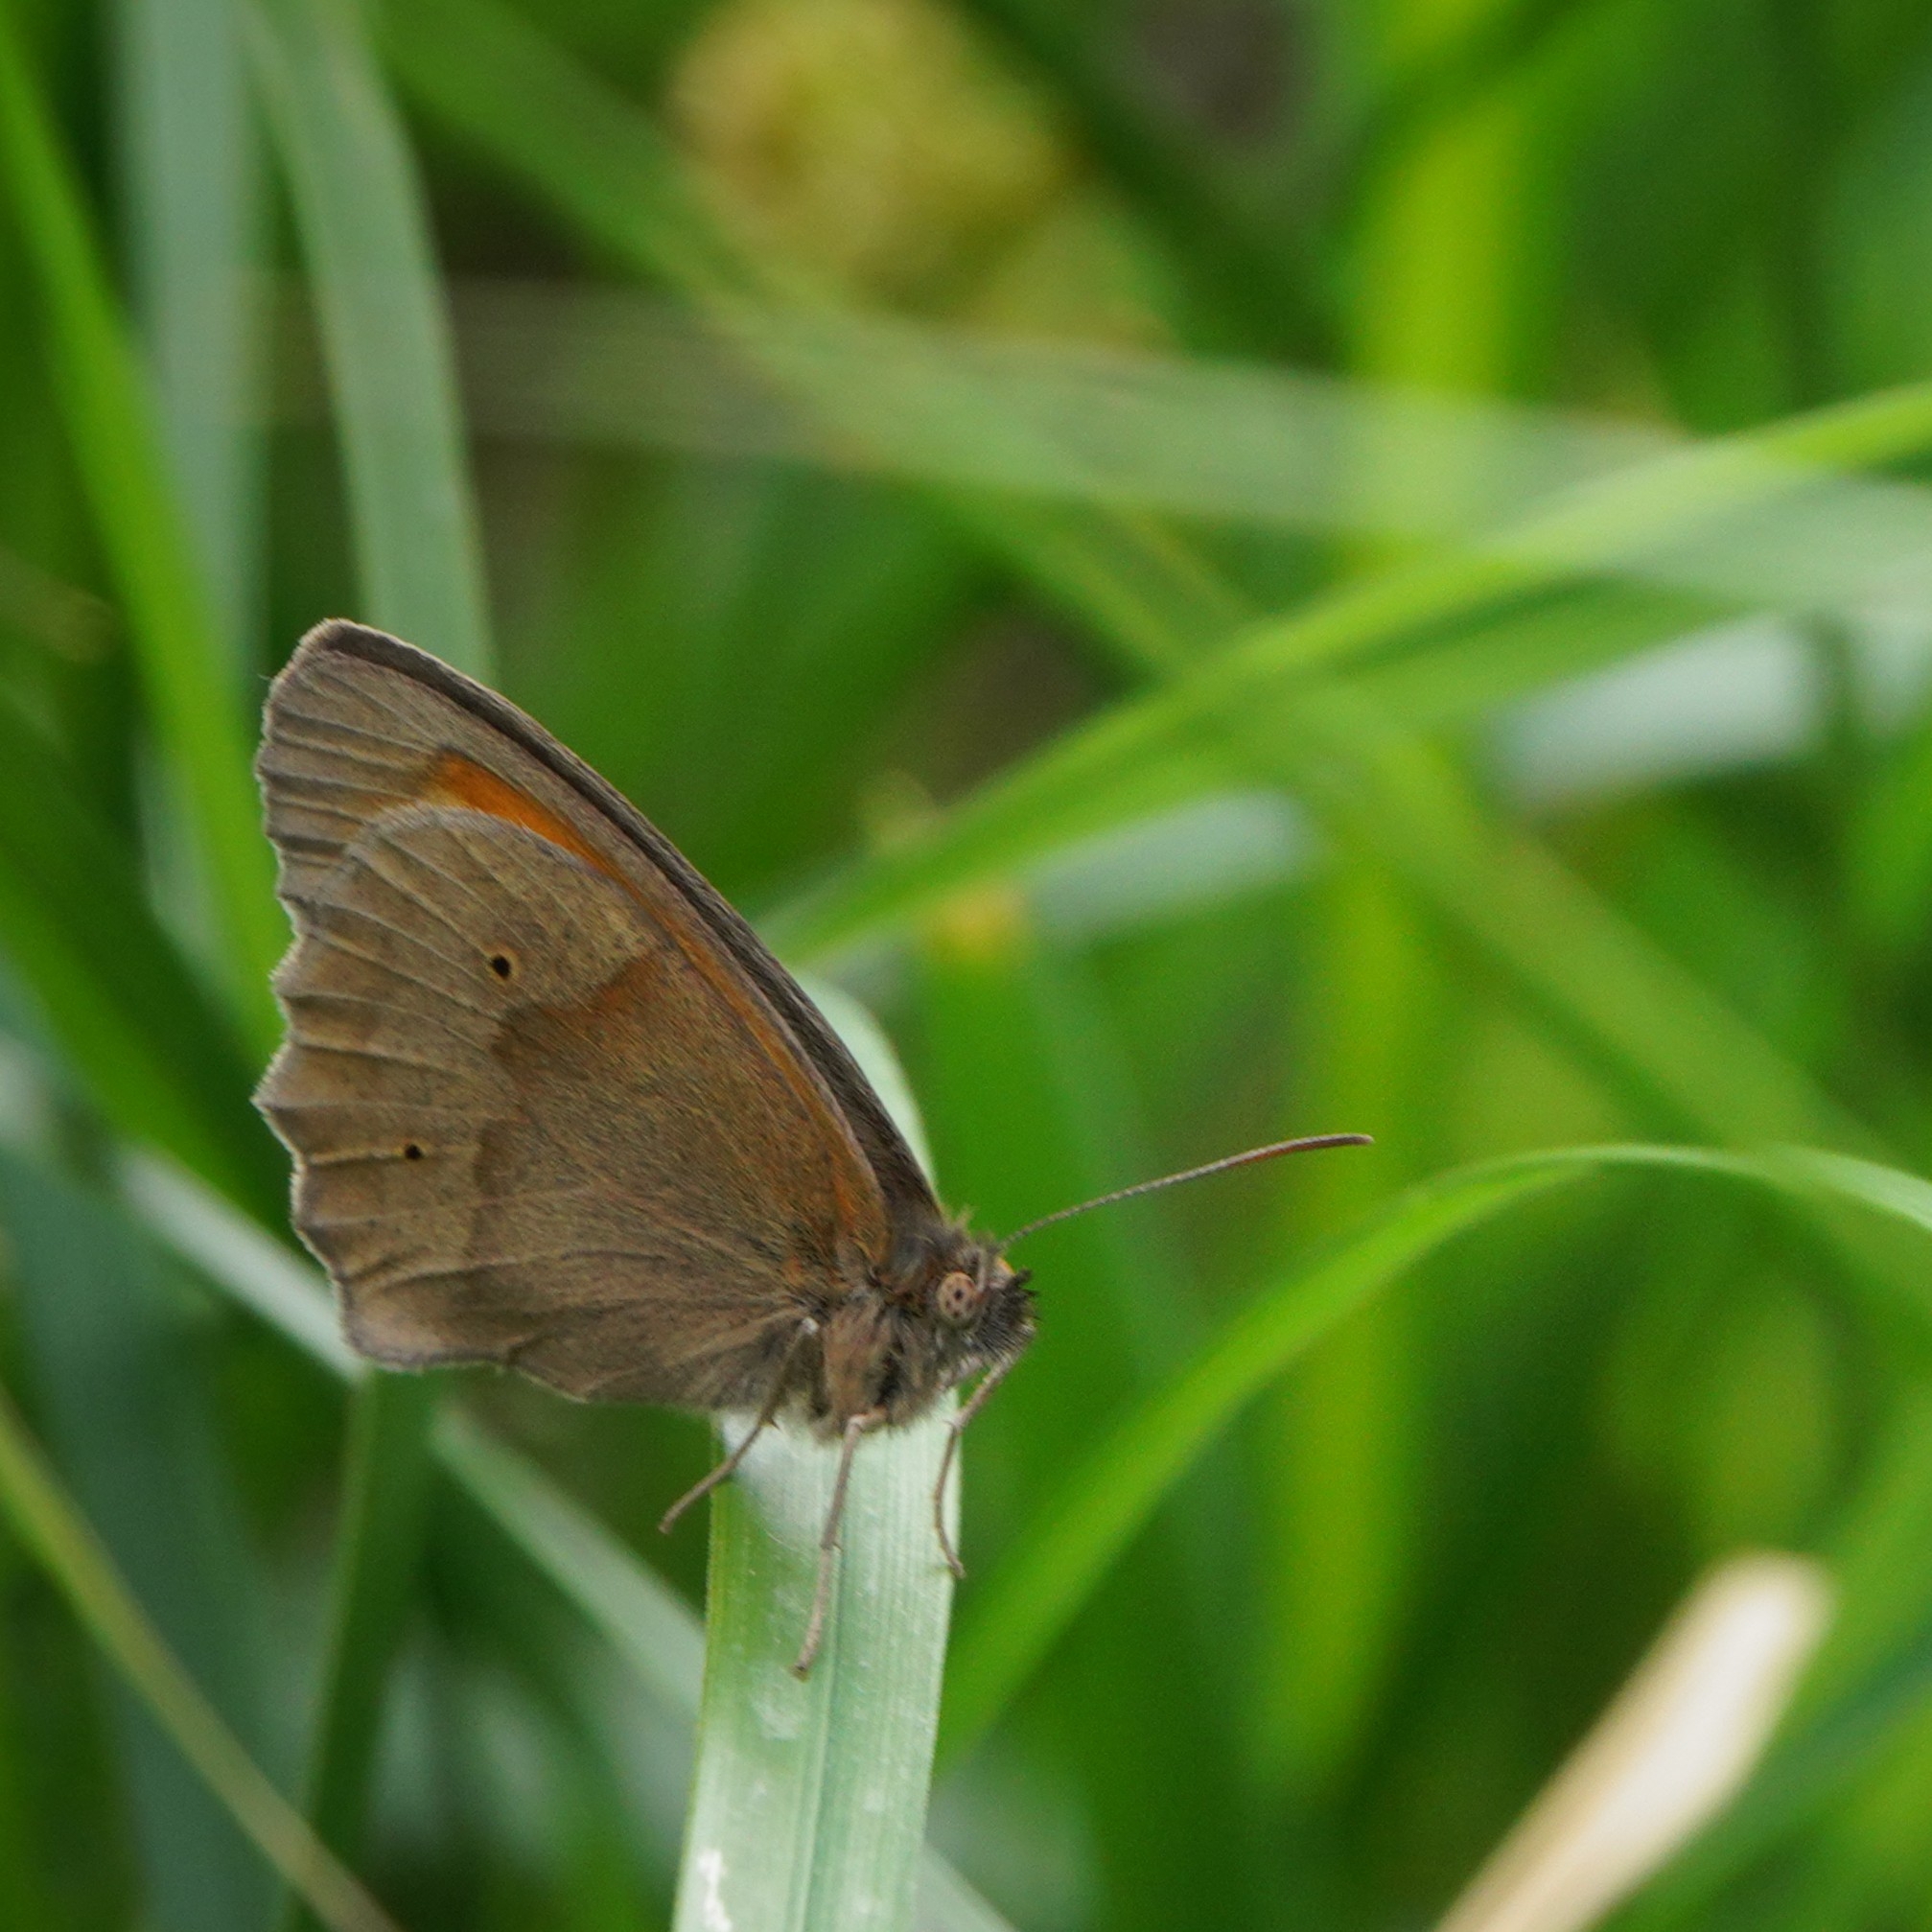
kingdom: Animalia
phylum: Arthropoda
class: Insecta
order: Lepidoptera
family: Nymphalidae
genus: Maniola
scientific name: Maniola jurtina
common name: Meadow brown
